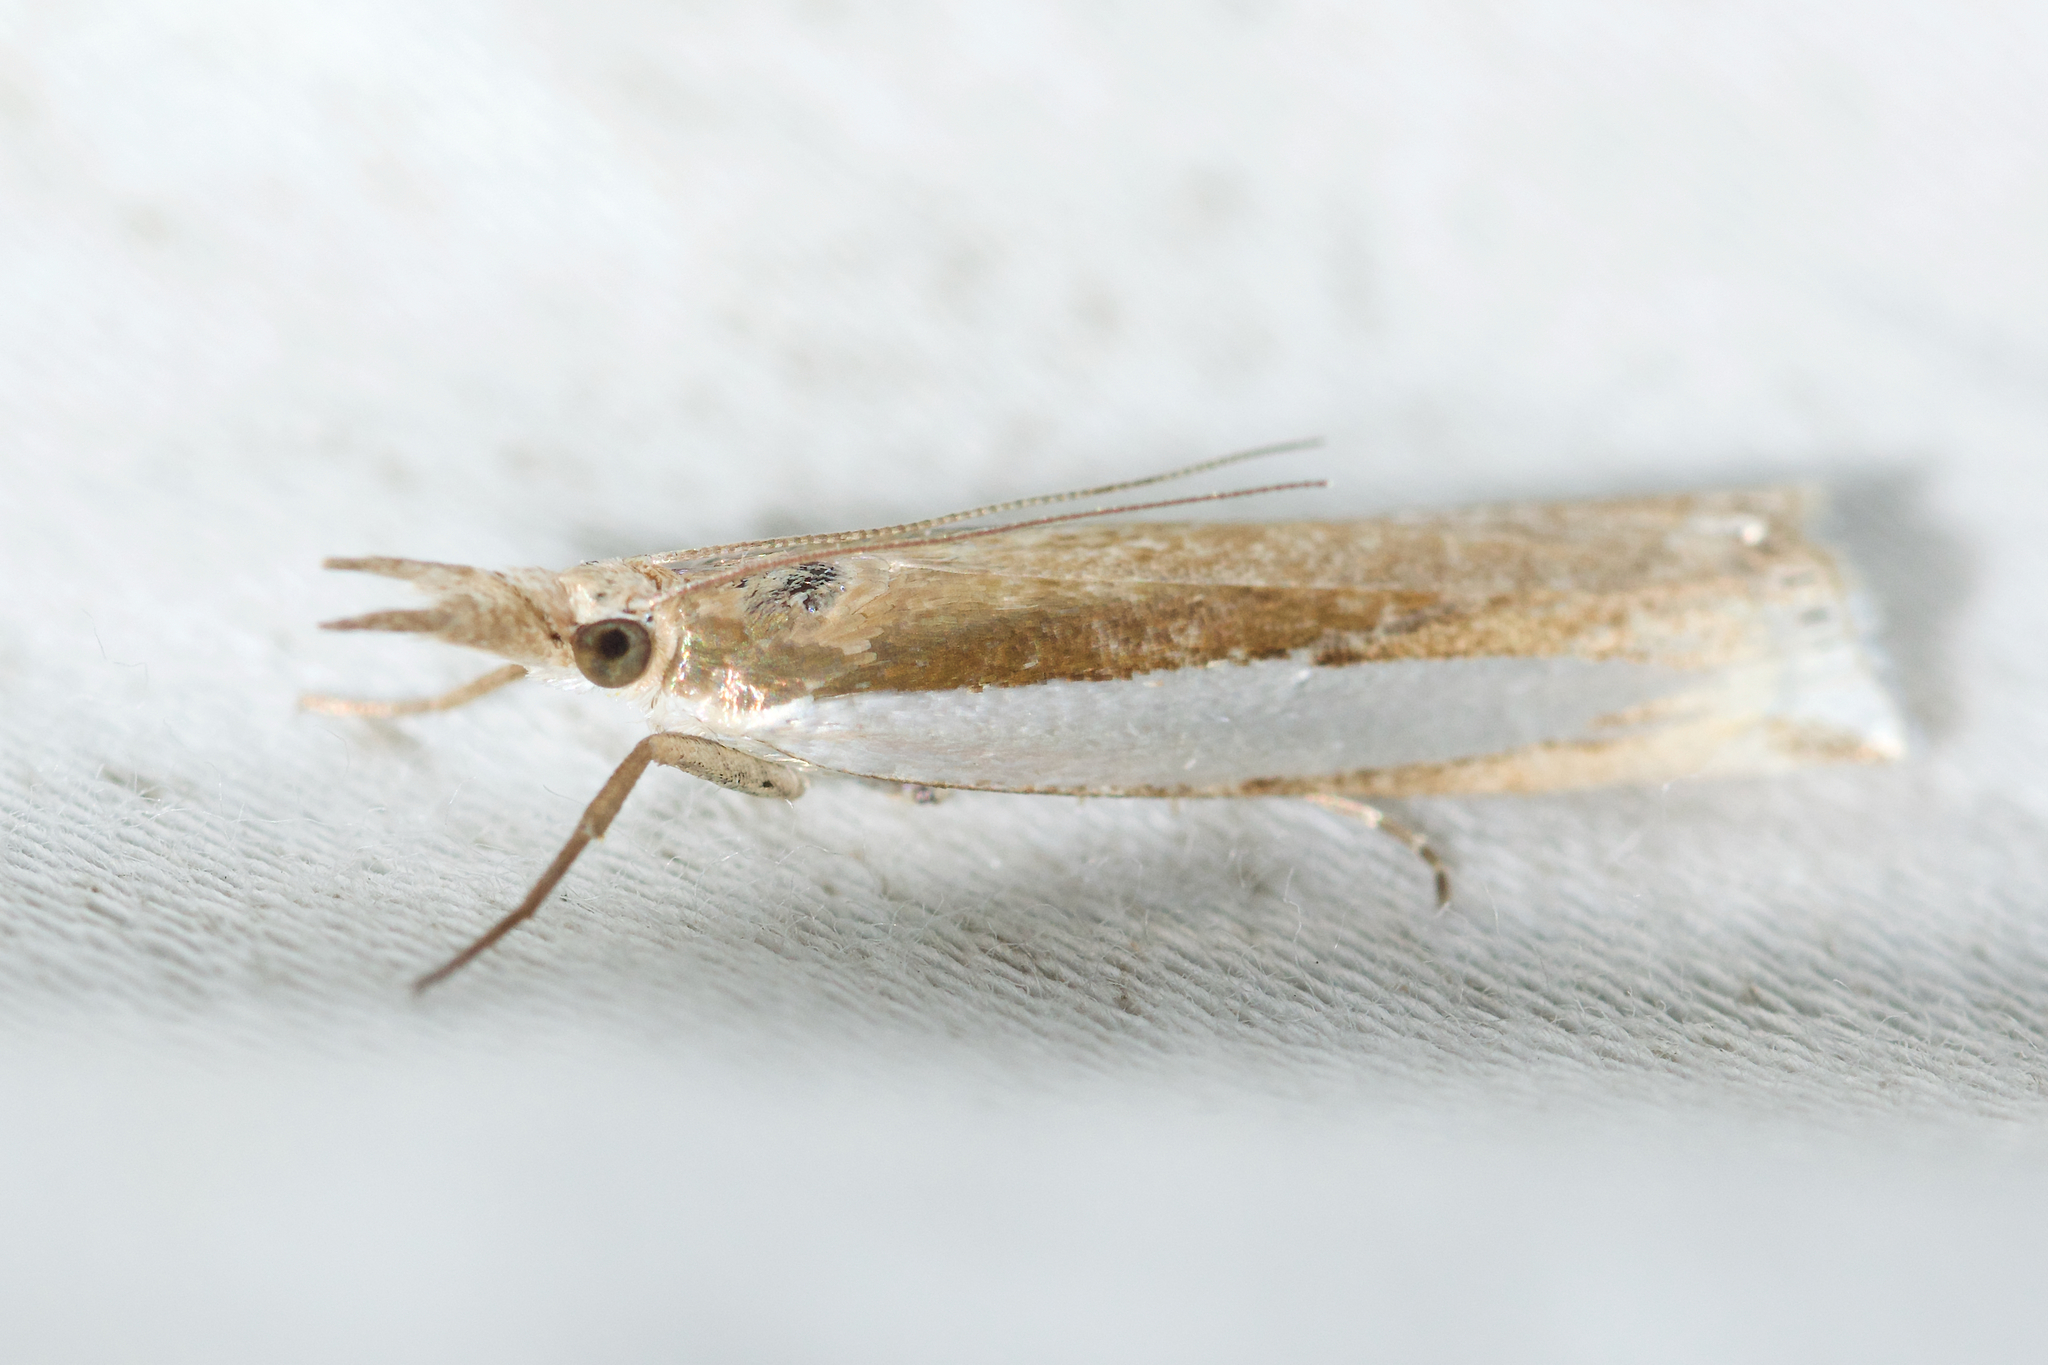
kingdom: Animalia
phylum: Arthropoda
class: Insecta
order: Lepidoptera
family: Crambidae
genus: Crambus
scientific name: Crambus leachellus
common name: Leach's grass-veneer
